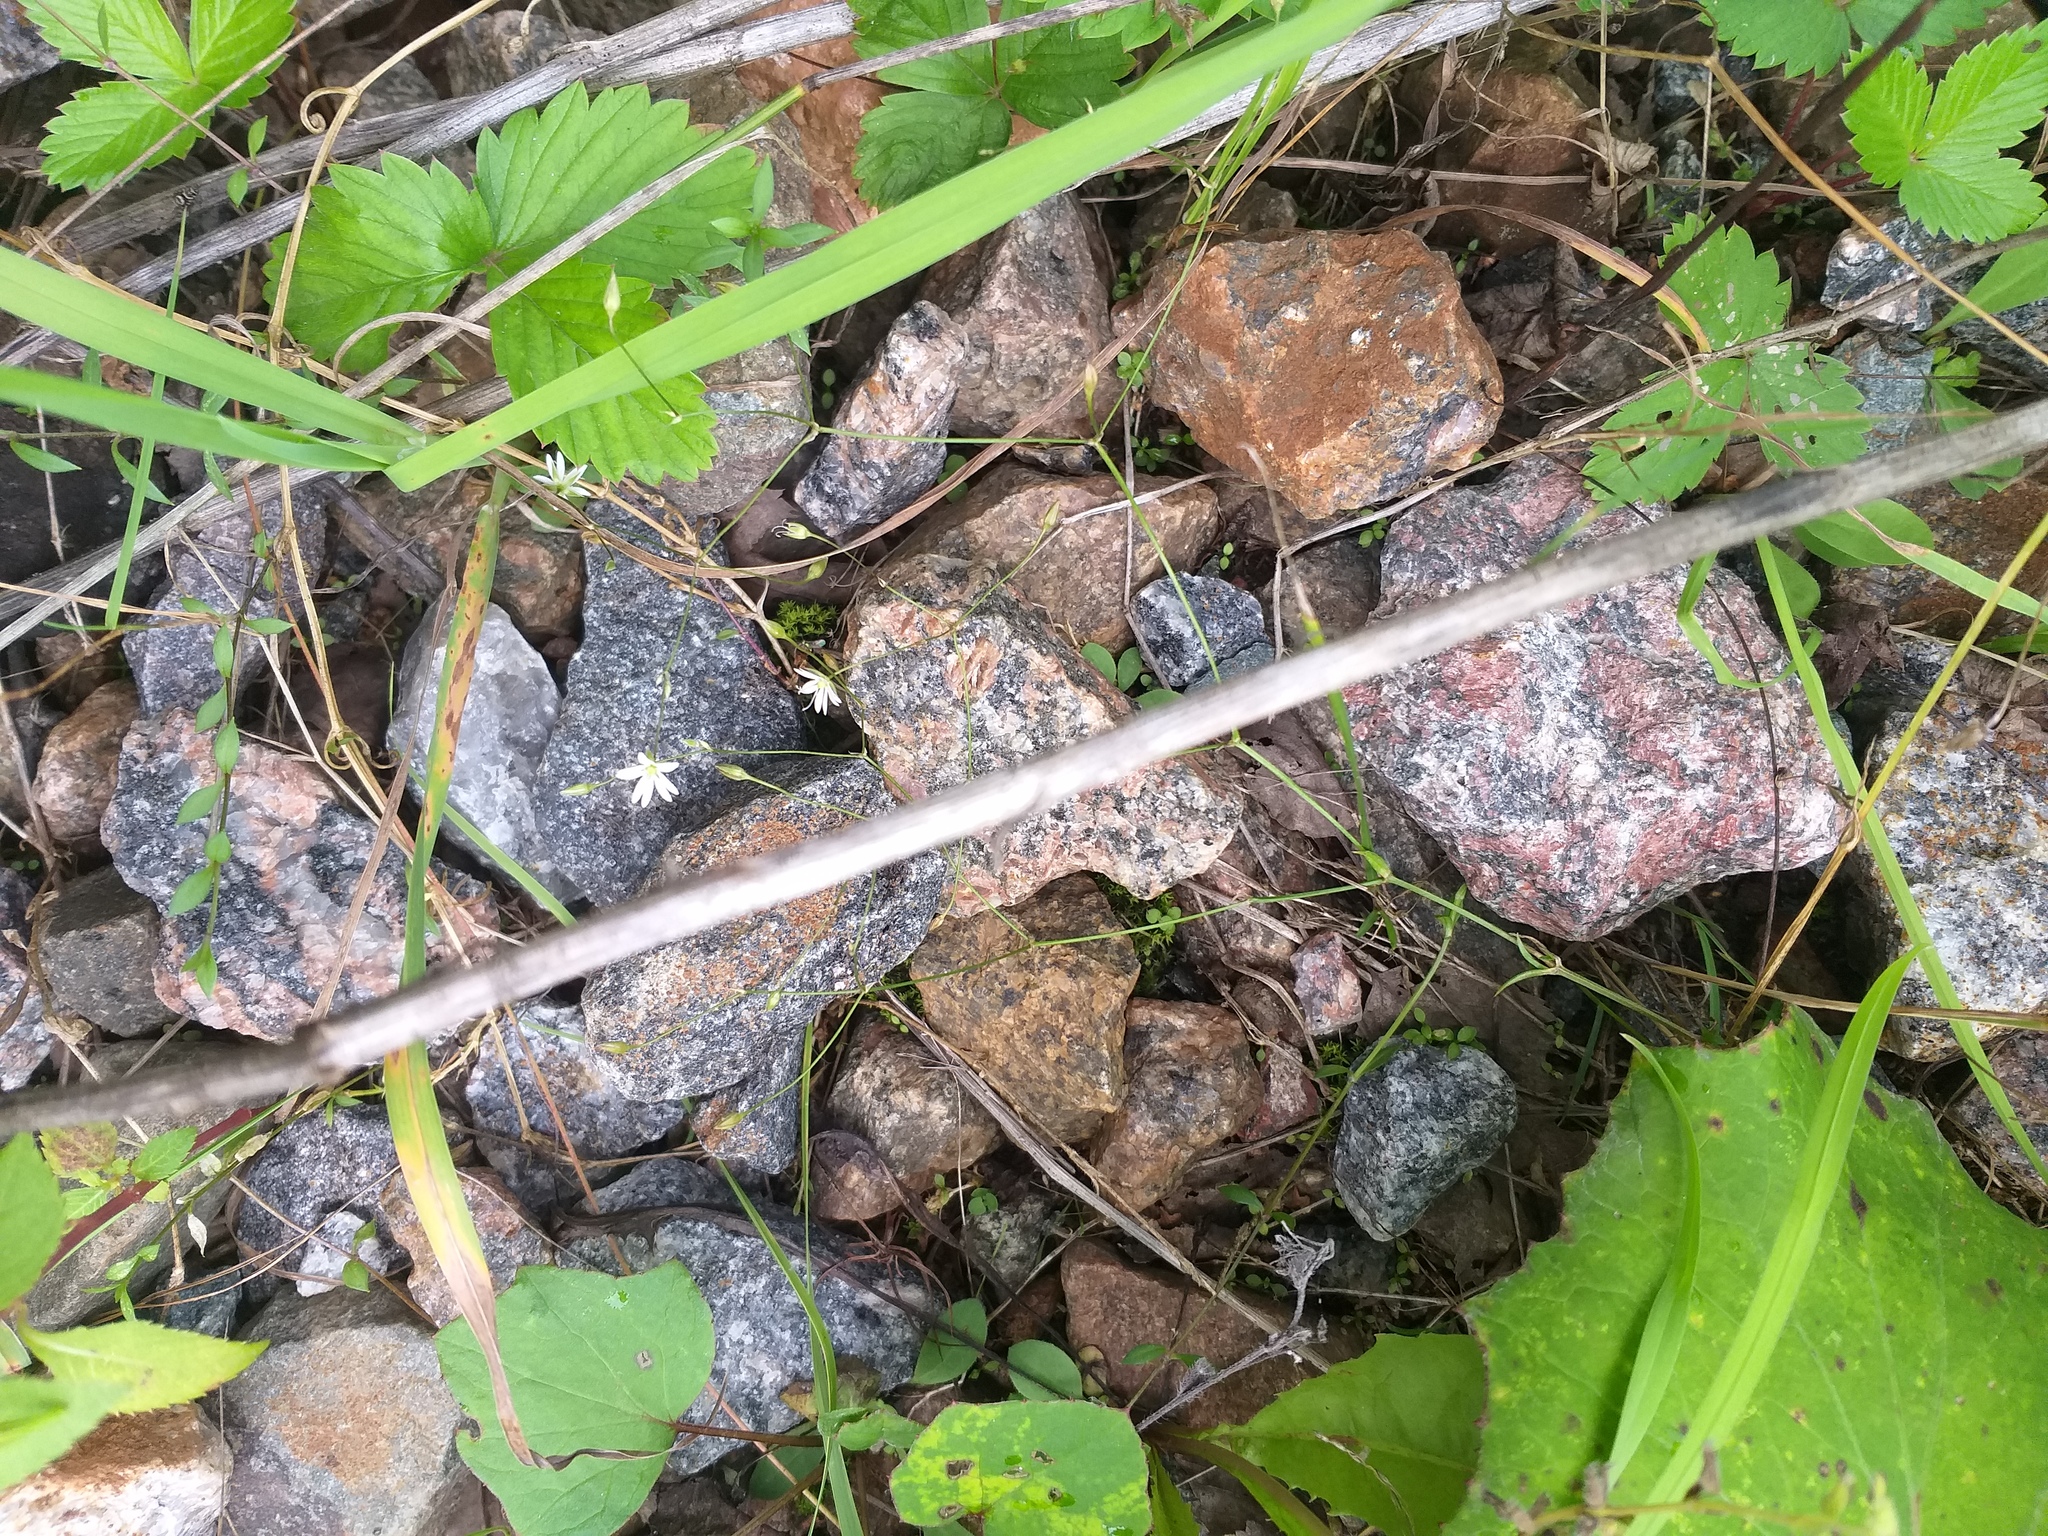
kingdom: Plantae
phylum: Tracheophyta
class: Magnoliopsida
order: Caryophyllales
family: Caryophyllaceae
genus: Stellaria
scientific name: Stellaria graminea
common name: Grass-like starwort
